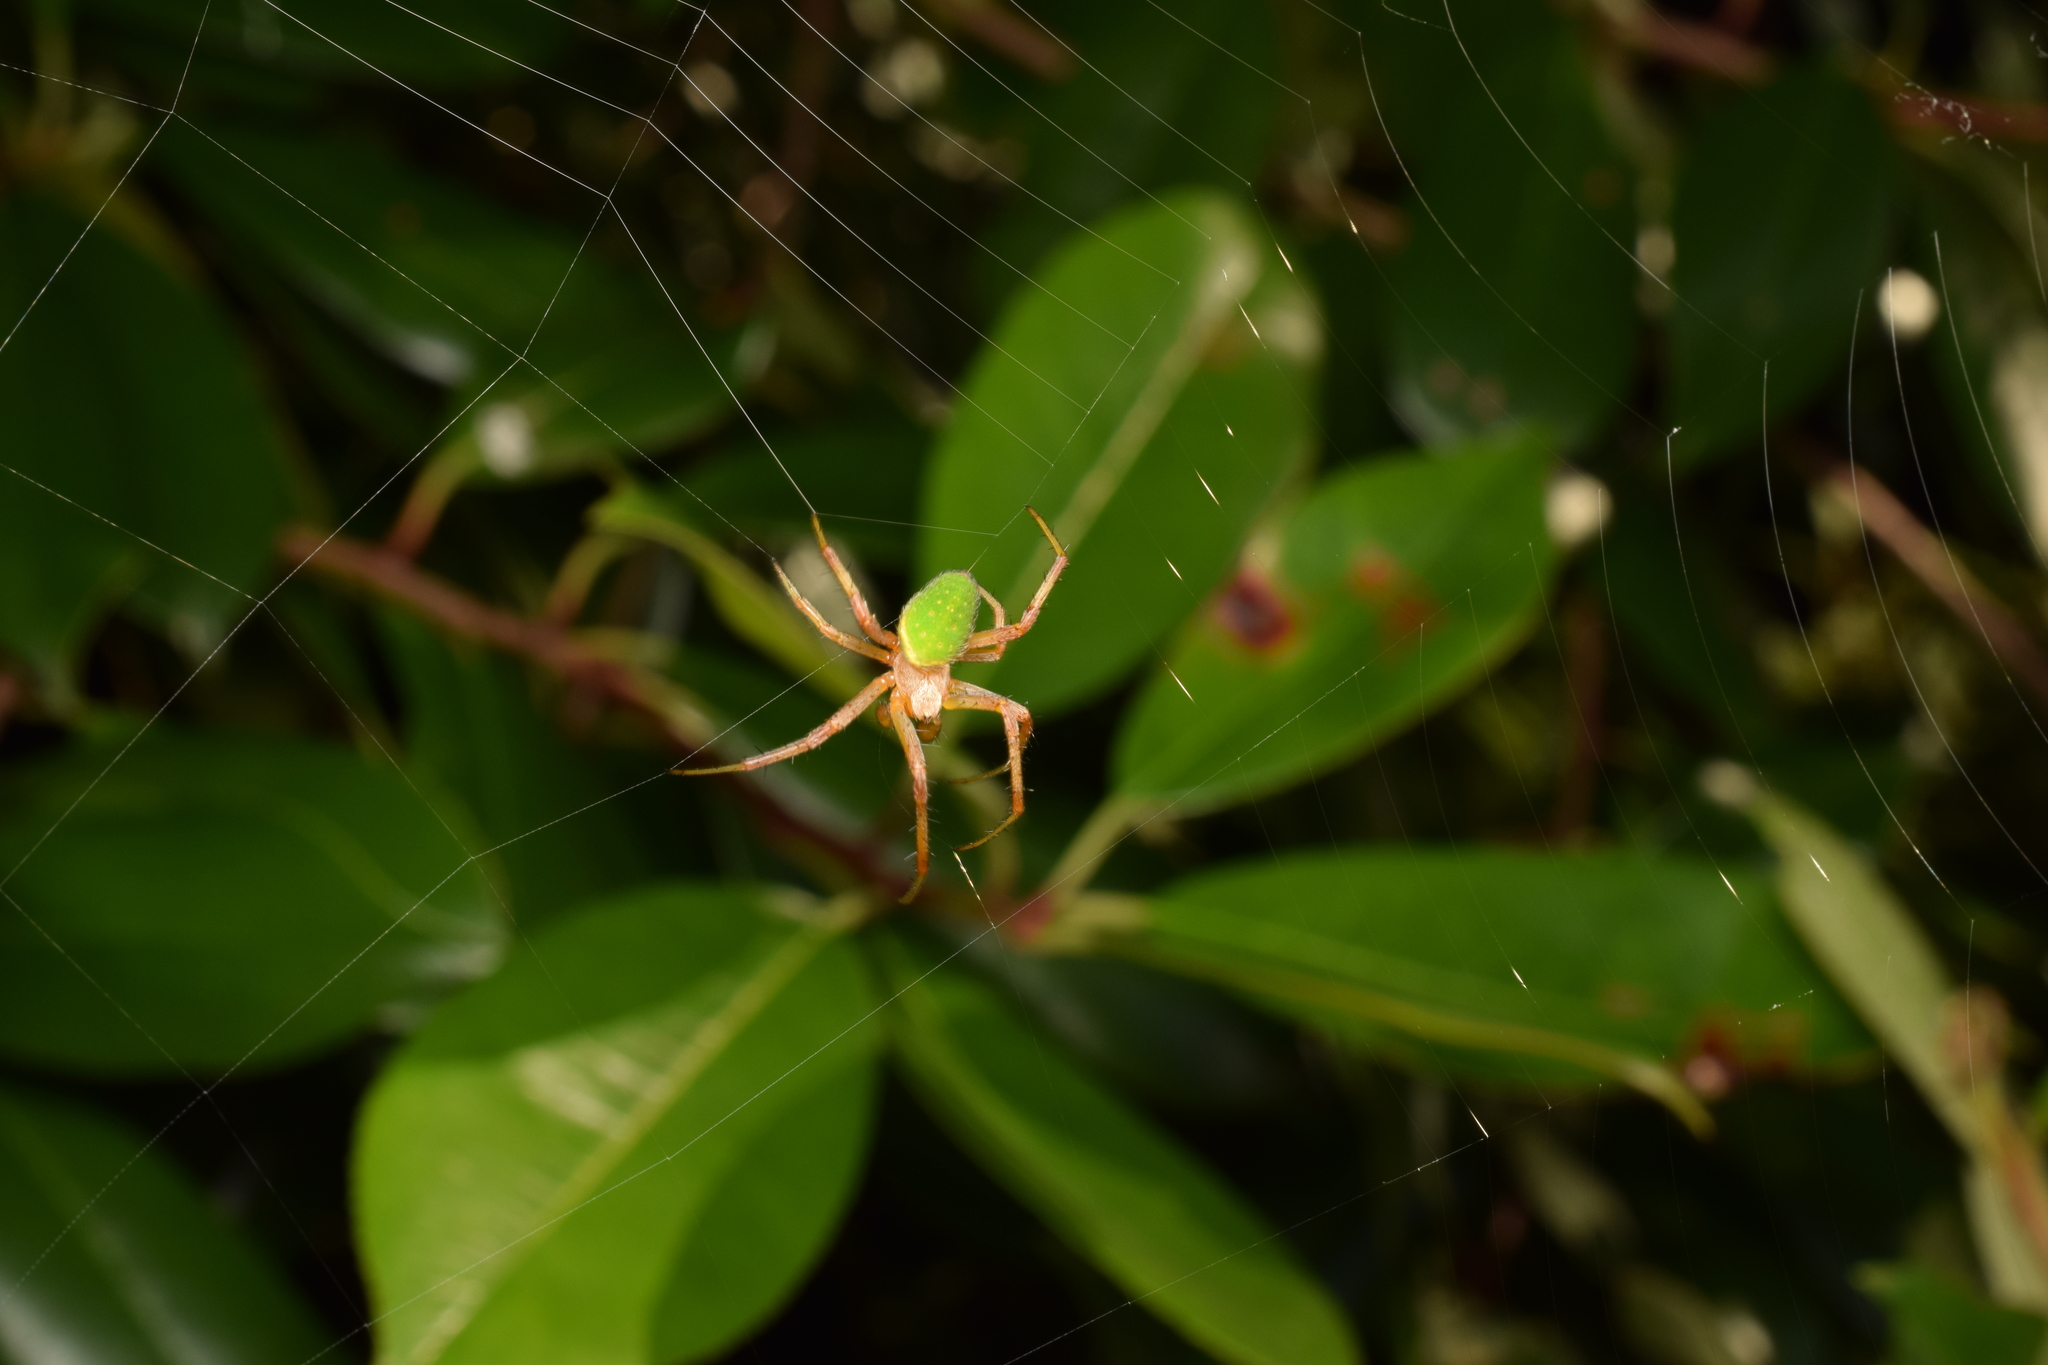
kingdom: Animalia
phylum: Arthropoda
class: Arachnida
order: Araneae
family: Araneidae
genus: Neoscona
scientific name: Neoscona scylloides
